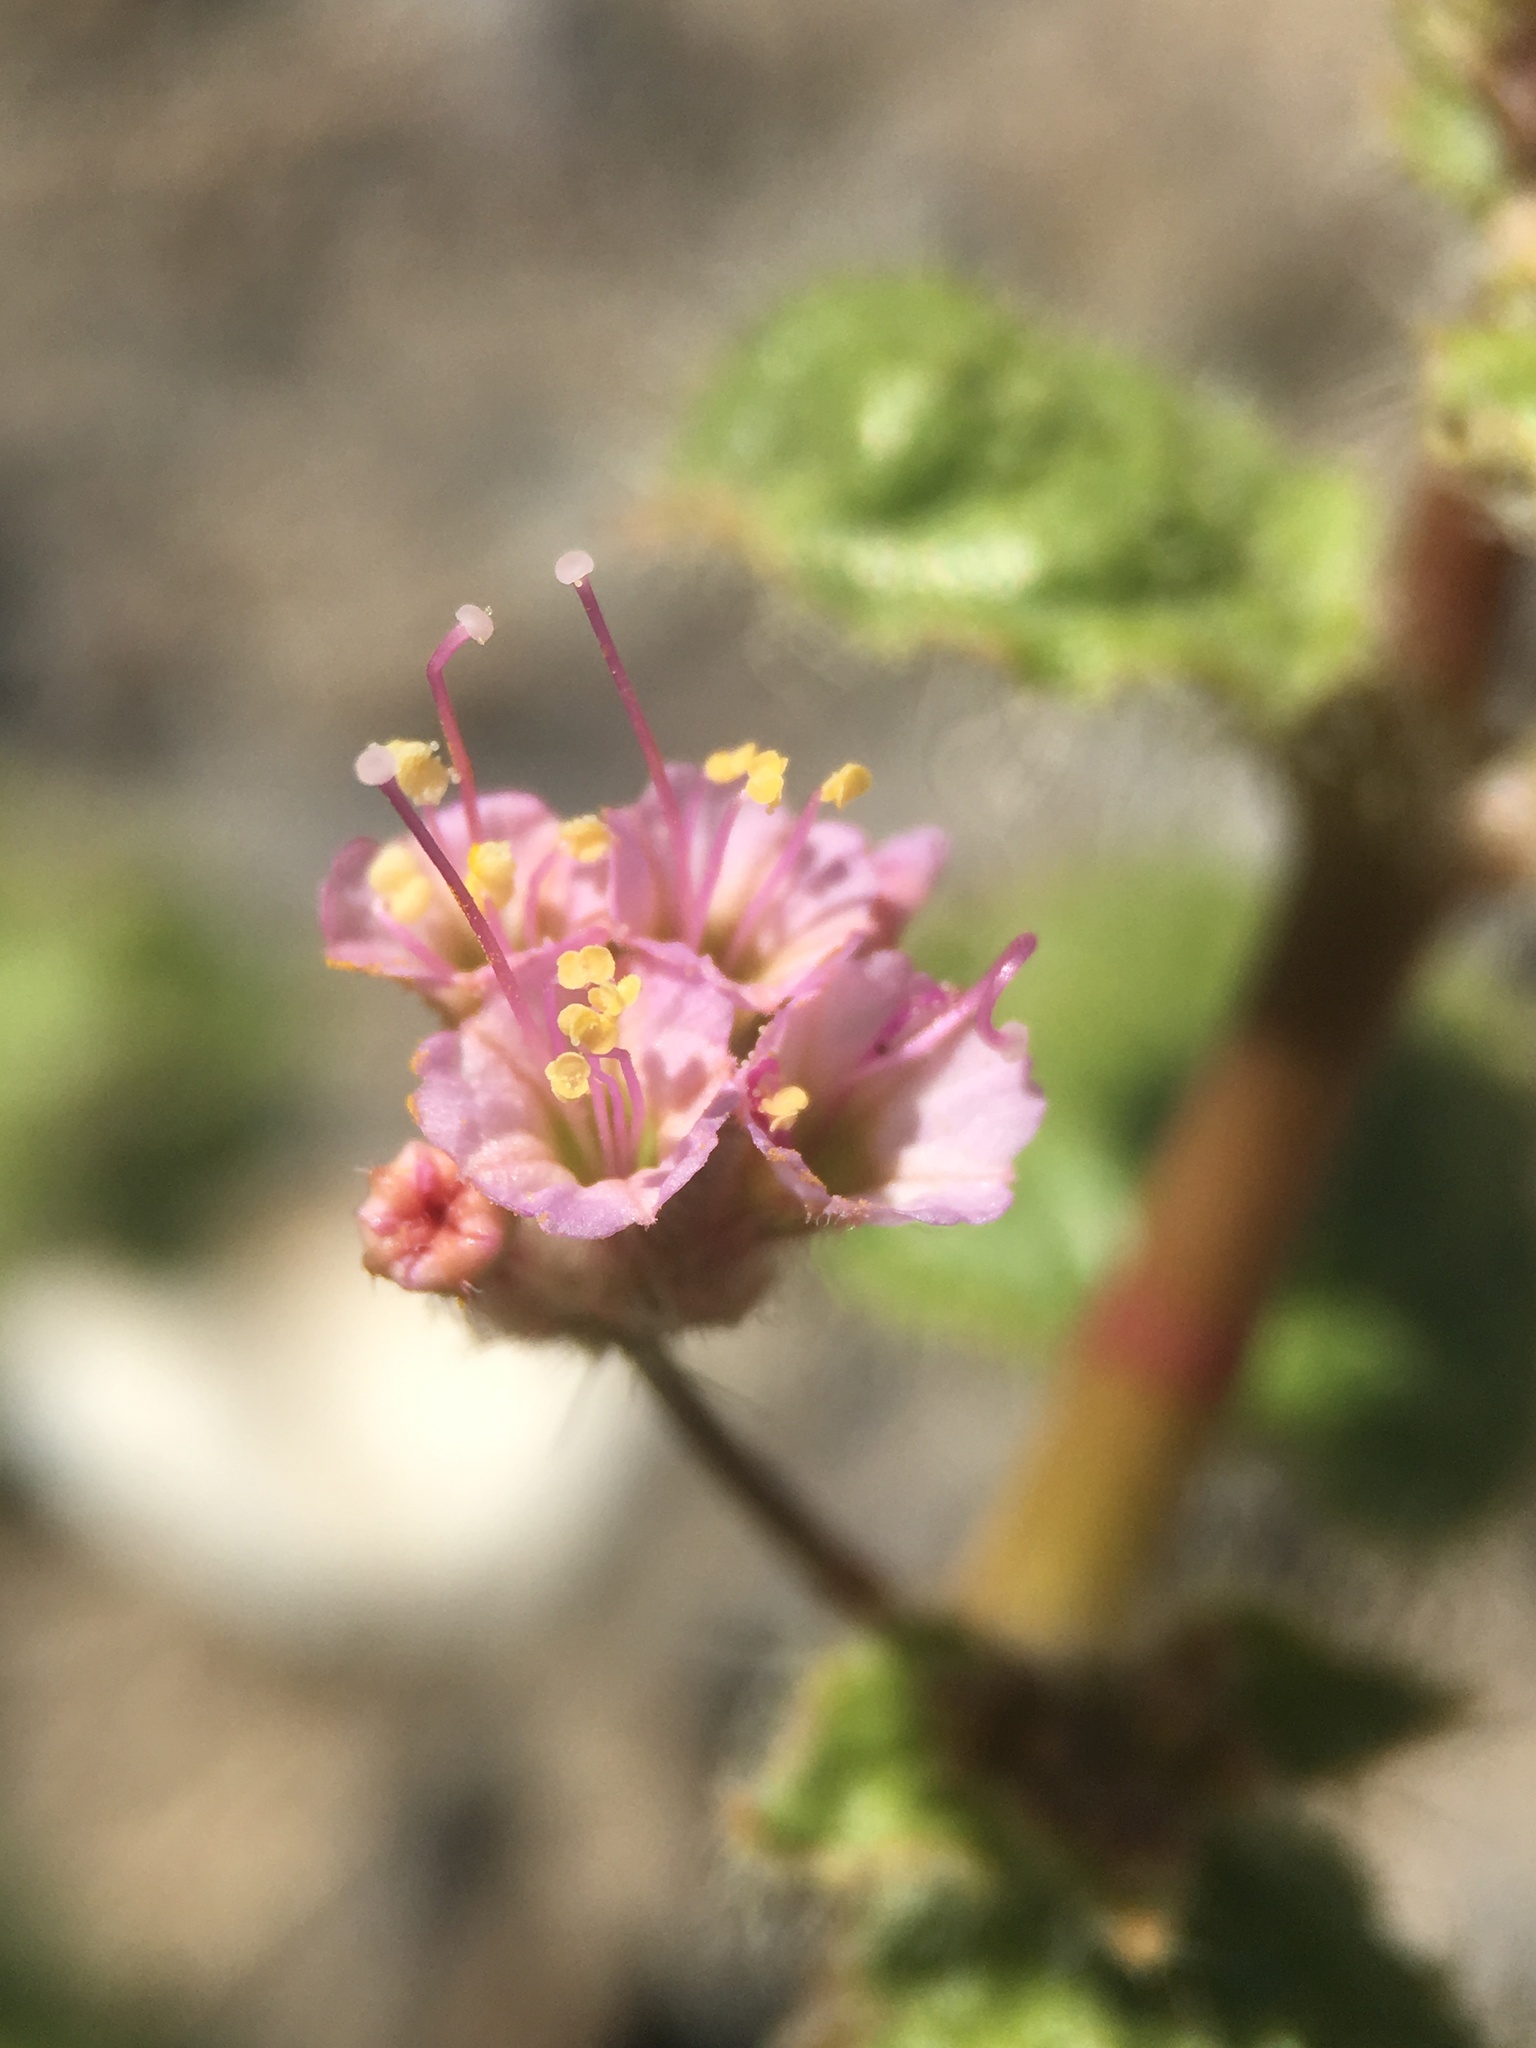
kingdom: Plantae
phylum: Tracheophyta
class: Magnoliopsida
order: Caryophyllales
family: Nyctaginaceae
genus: Anulocaulis
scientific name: Anulocaulis annulatus
